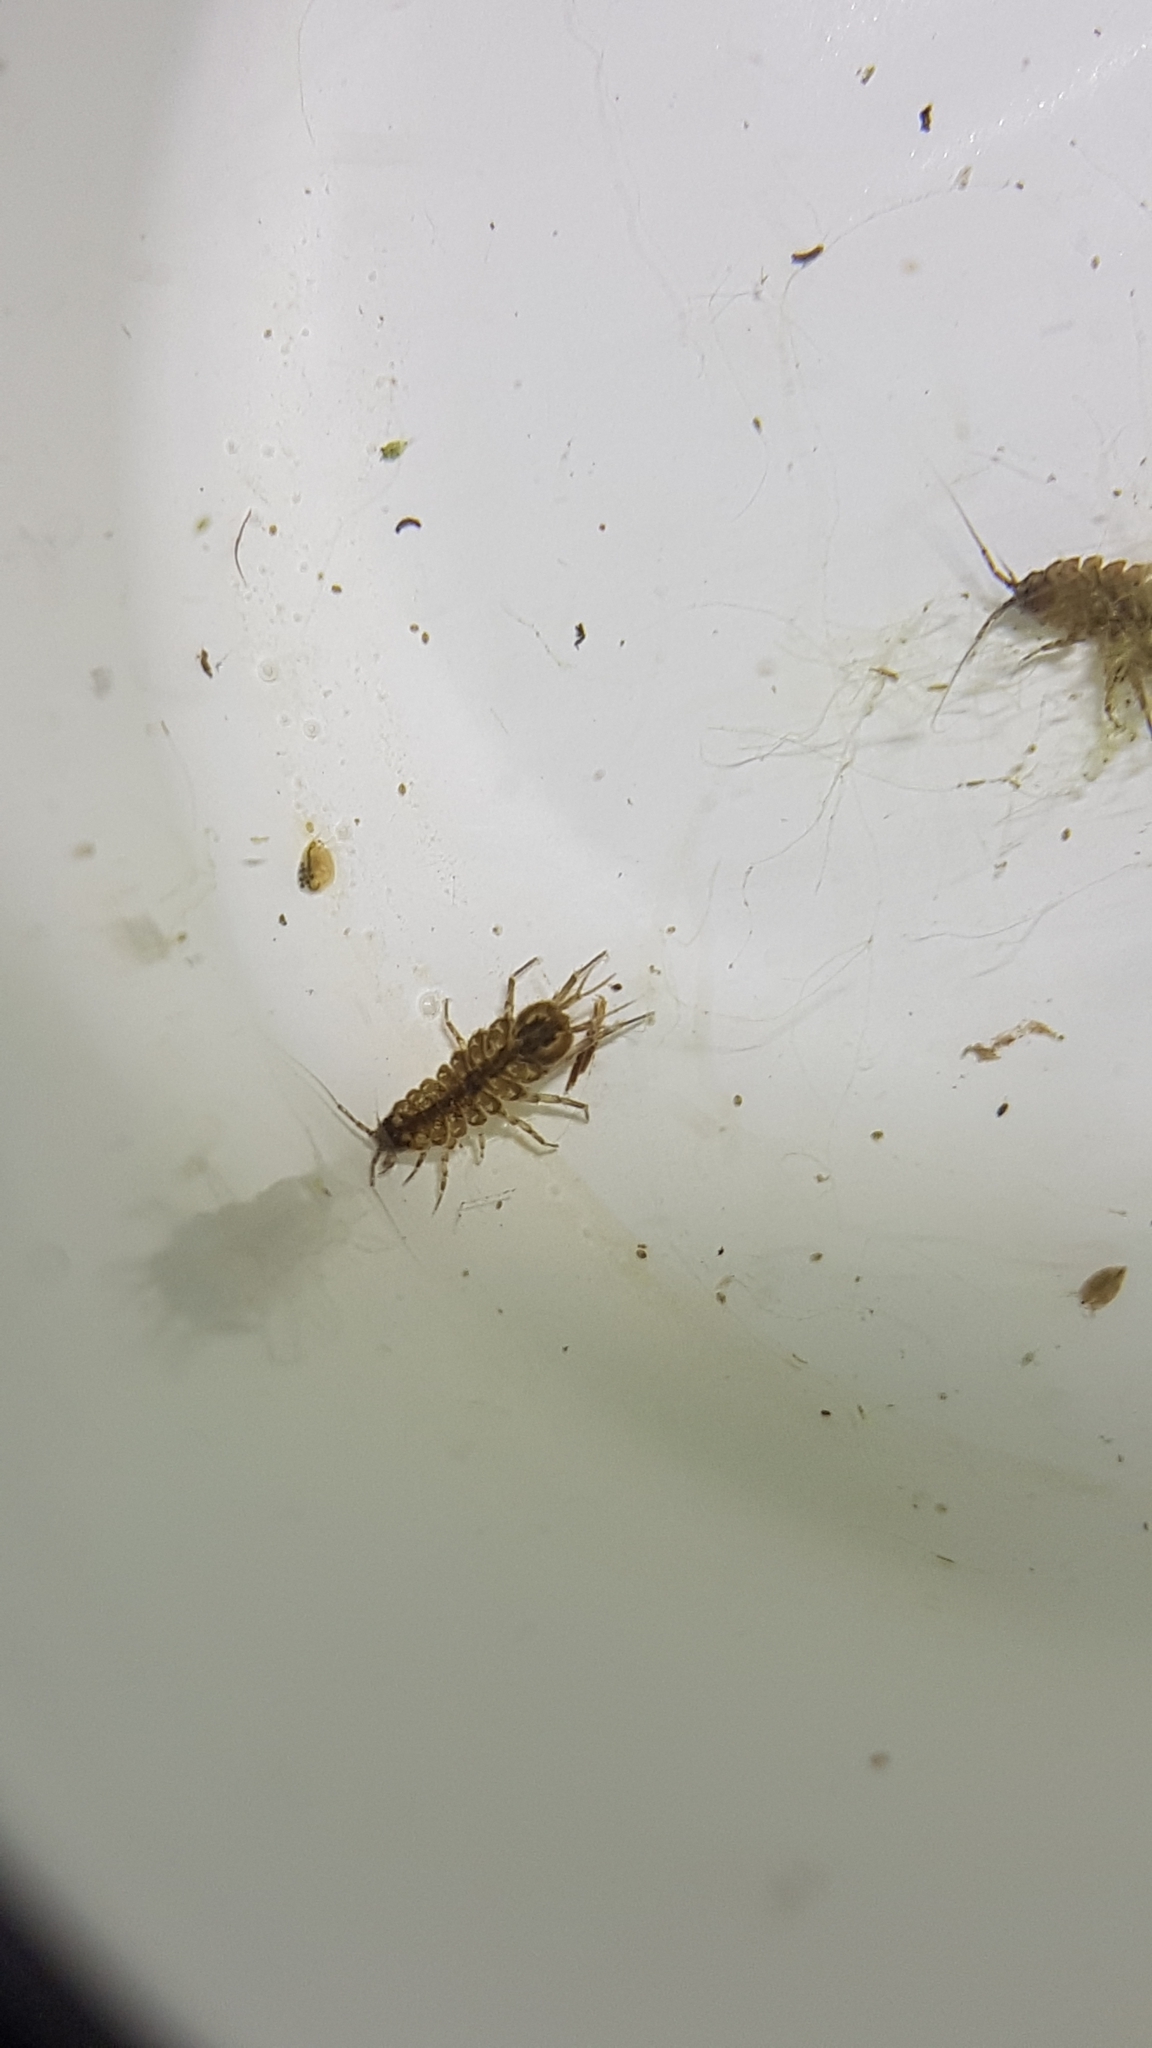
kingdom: Animalia
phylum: Arthropoda
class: Malacostraca
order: Isopoda
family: Asellidae
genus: Asellus
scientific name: Asellus aquaticus
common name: Water hog lice/slaters
